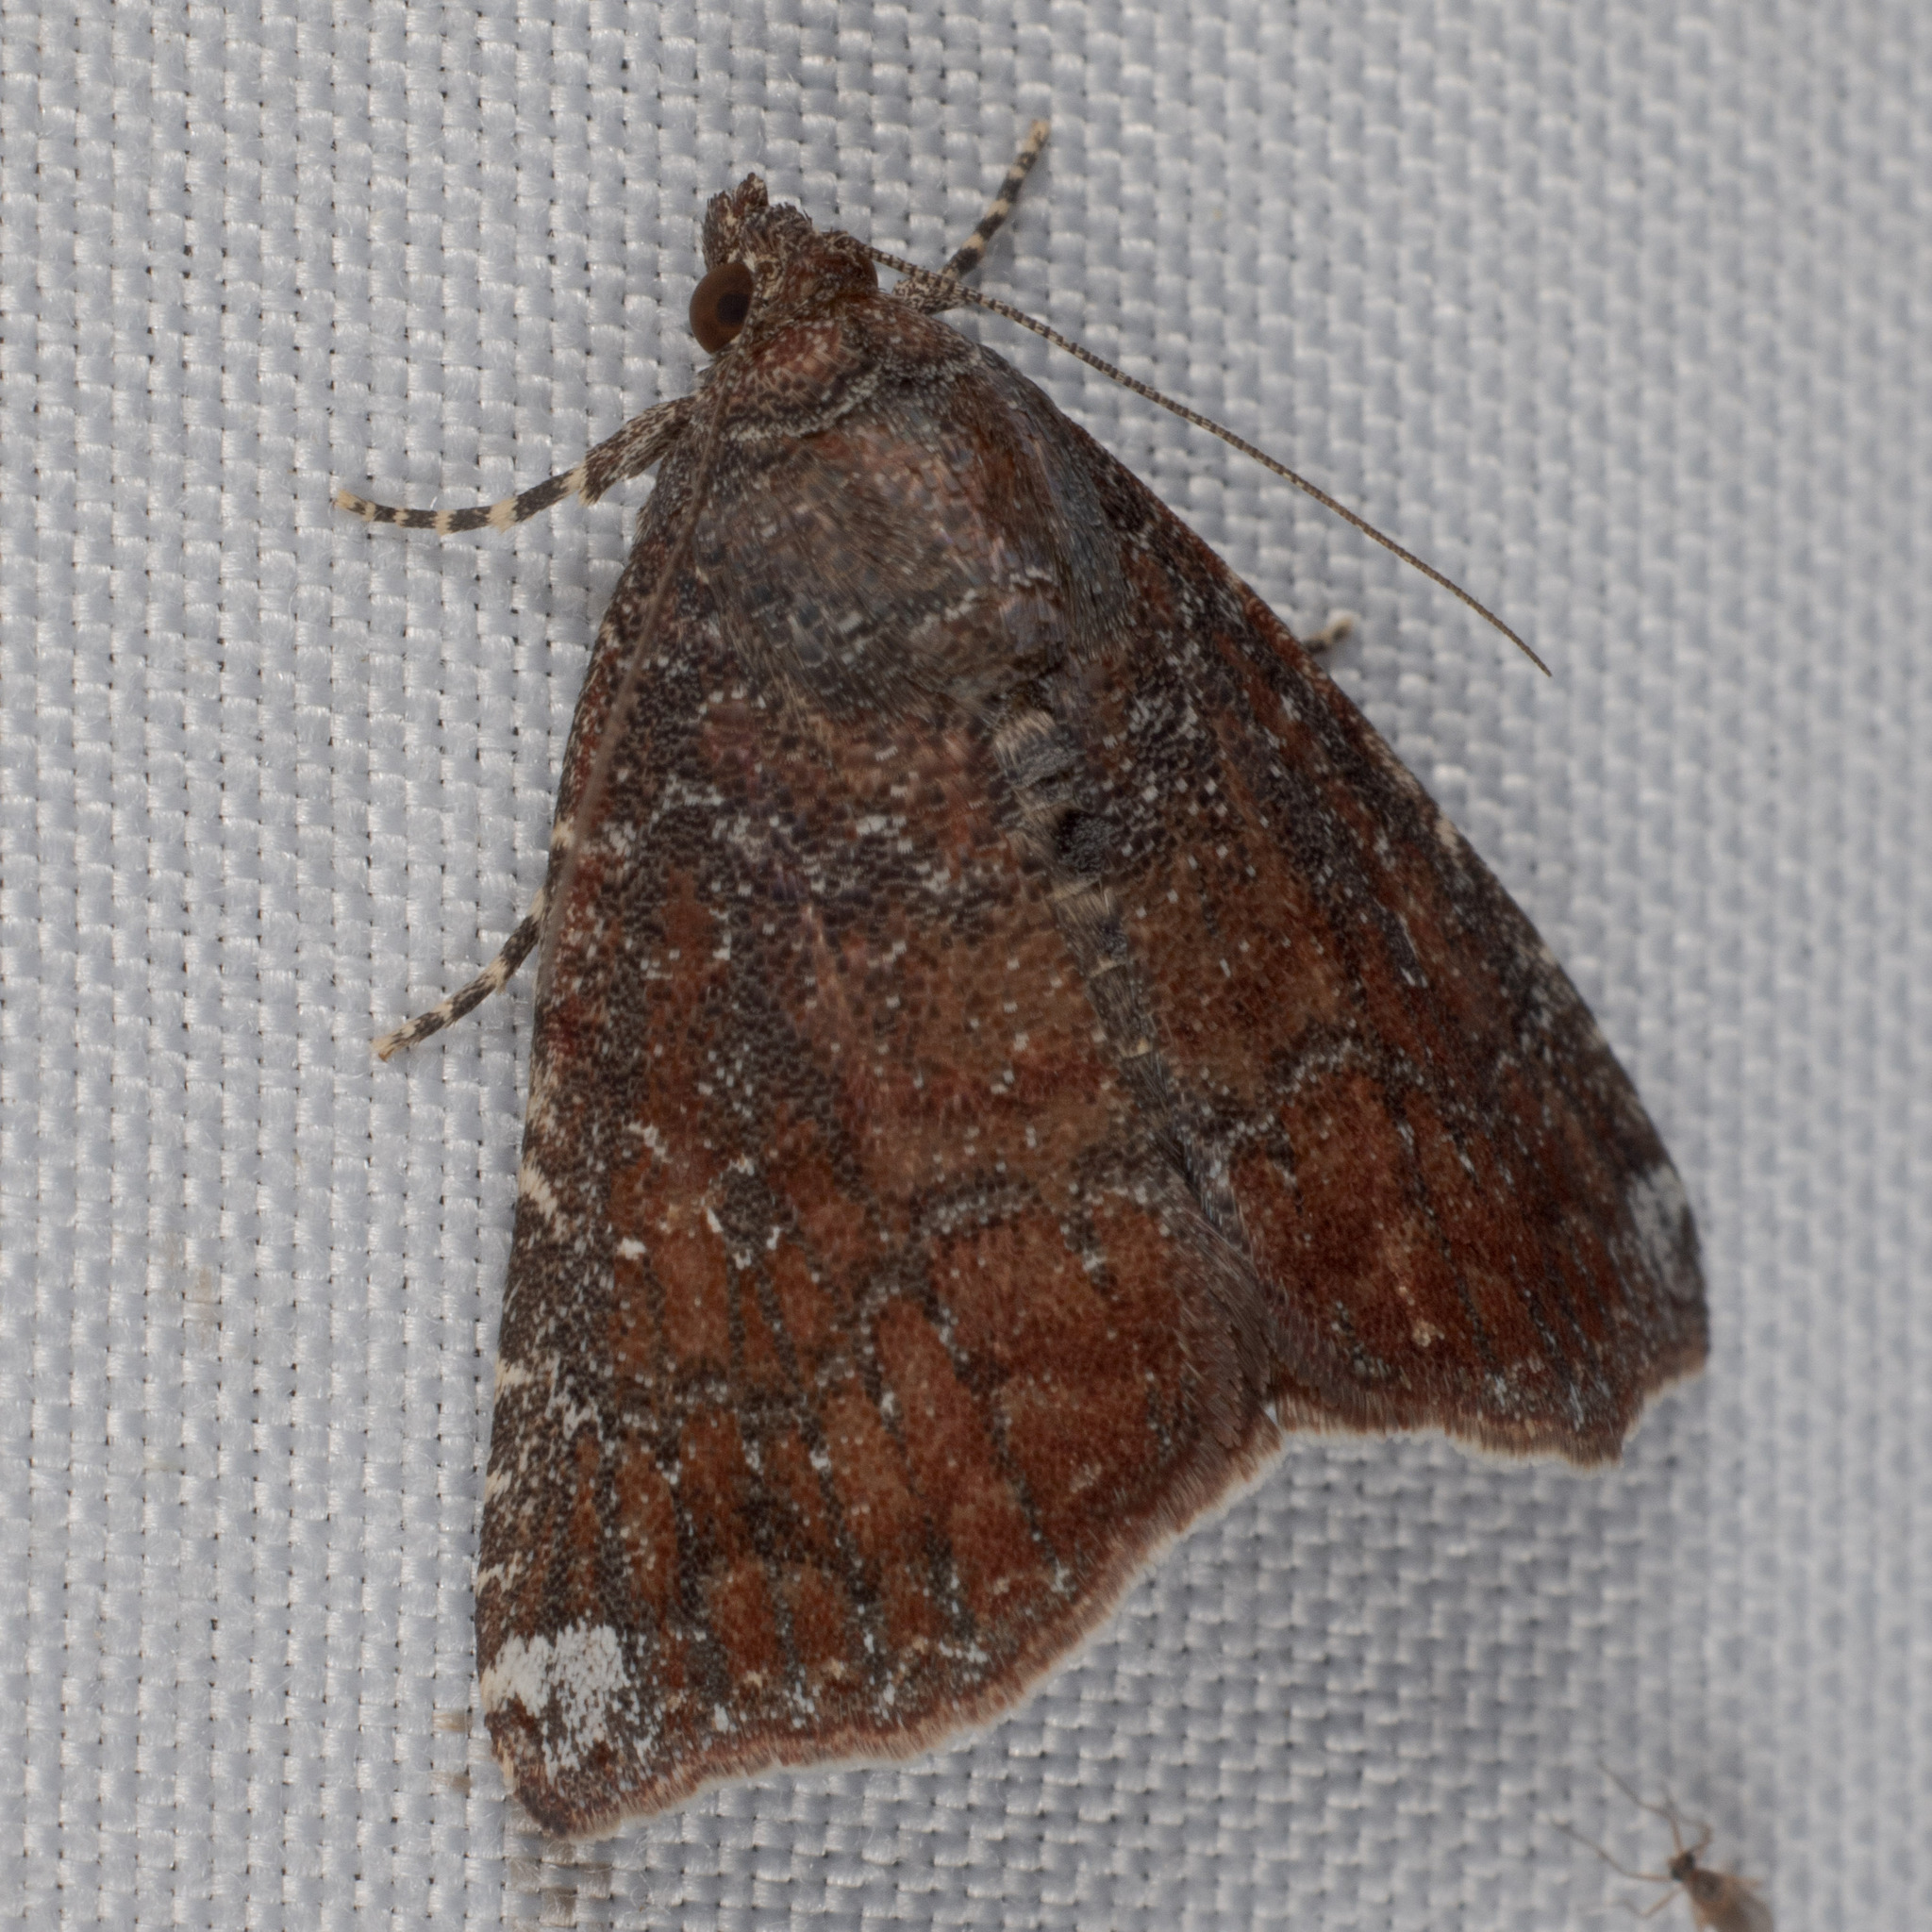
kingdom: Animalia
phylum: Arthropoda
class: Insecta
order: Lepidoptera
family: Noctuidae
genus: Amyna
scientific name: Amyna bullula
